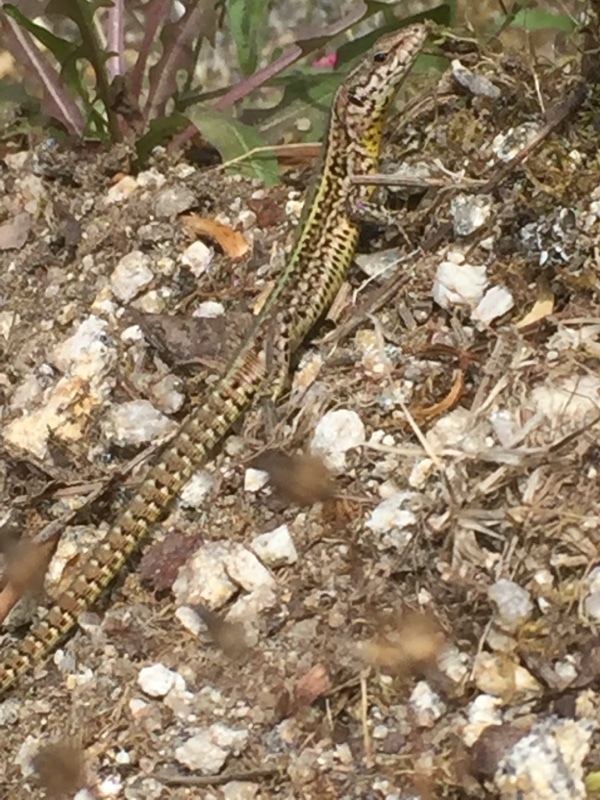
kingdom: Animalia
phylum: Chordata
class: Squamata
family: Lacertidae
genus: Podarcis
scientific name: Podarcis bocagei
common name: Bocage's wall lizard
